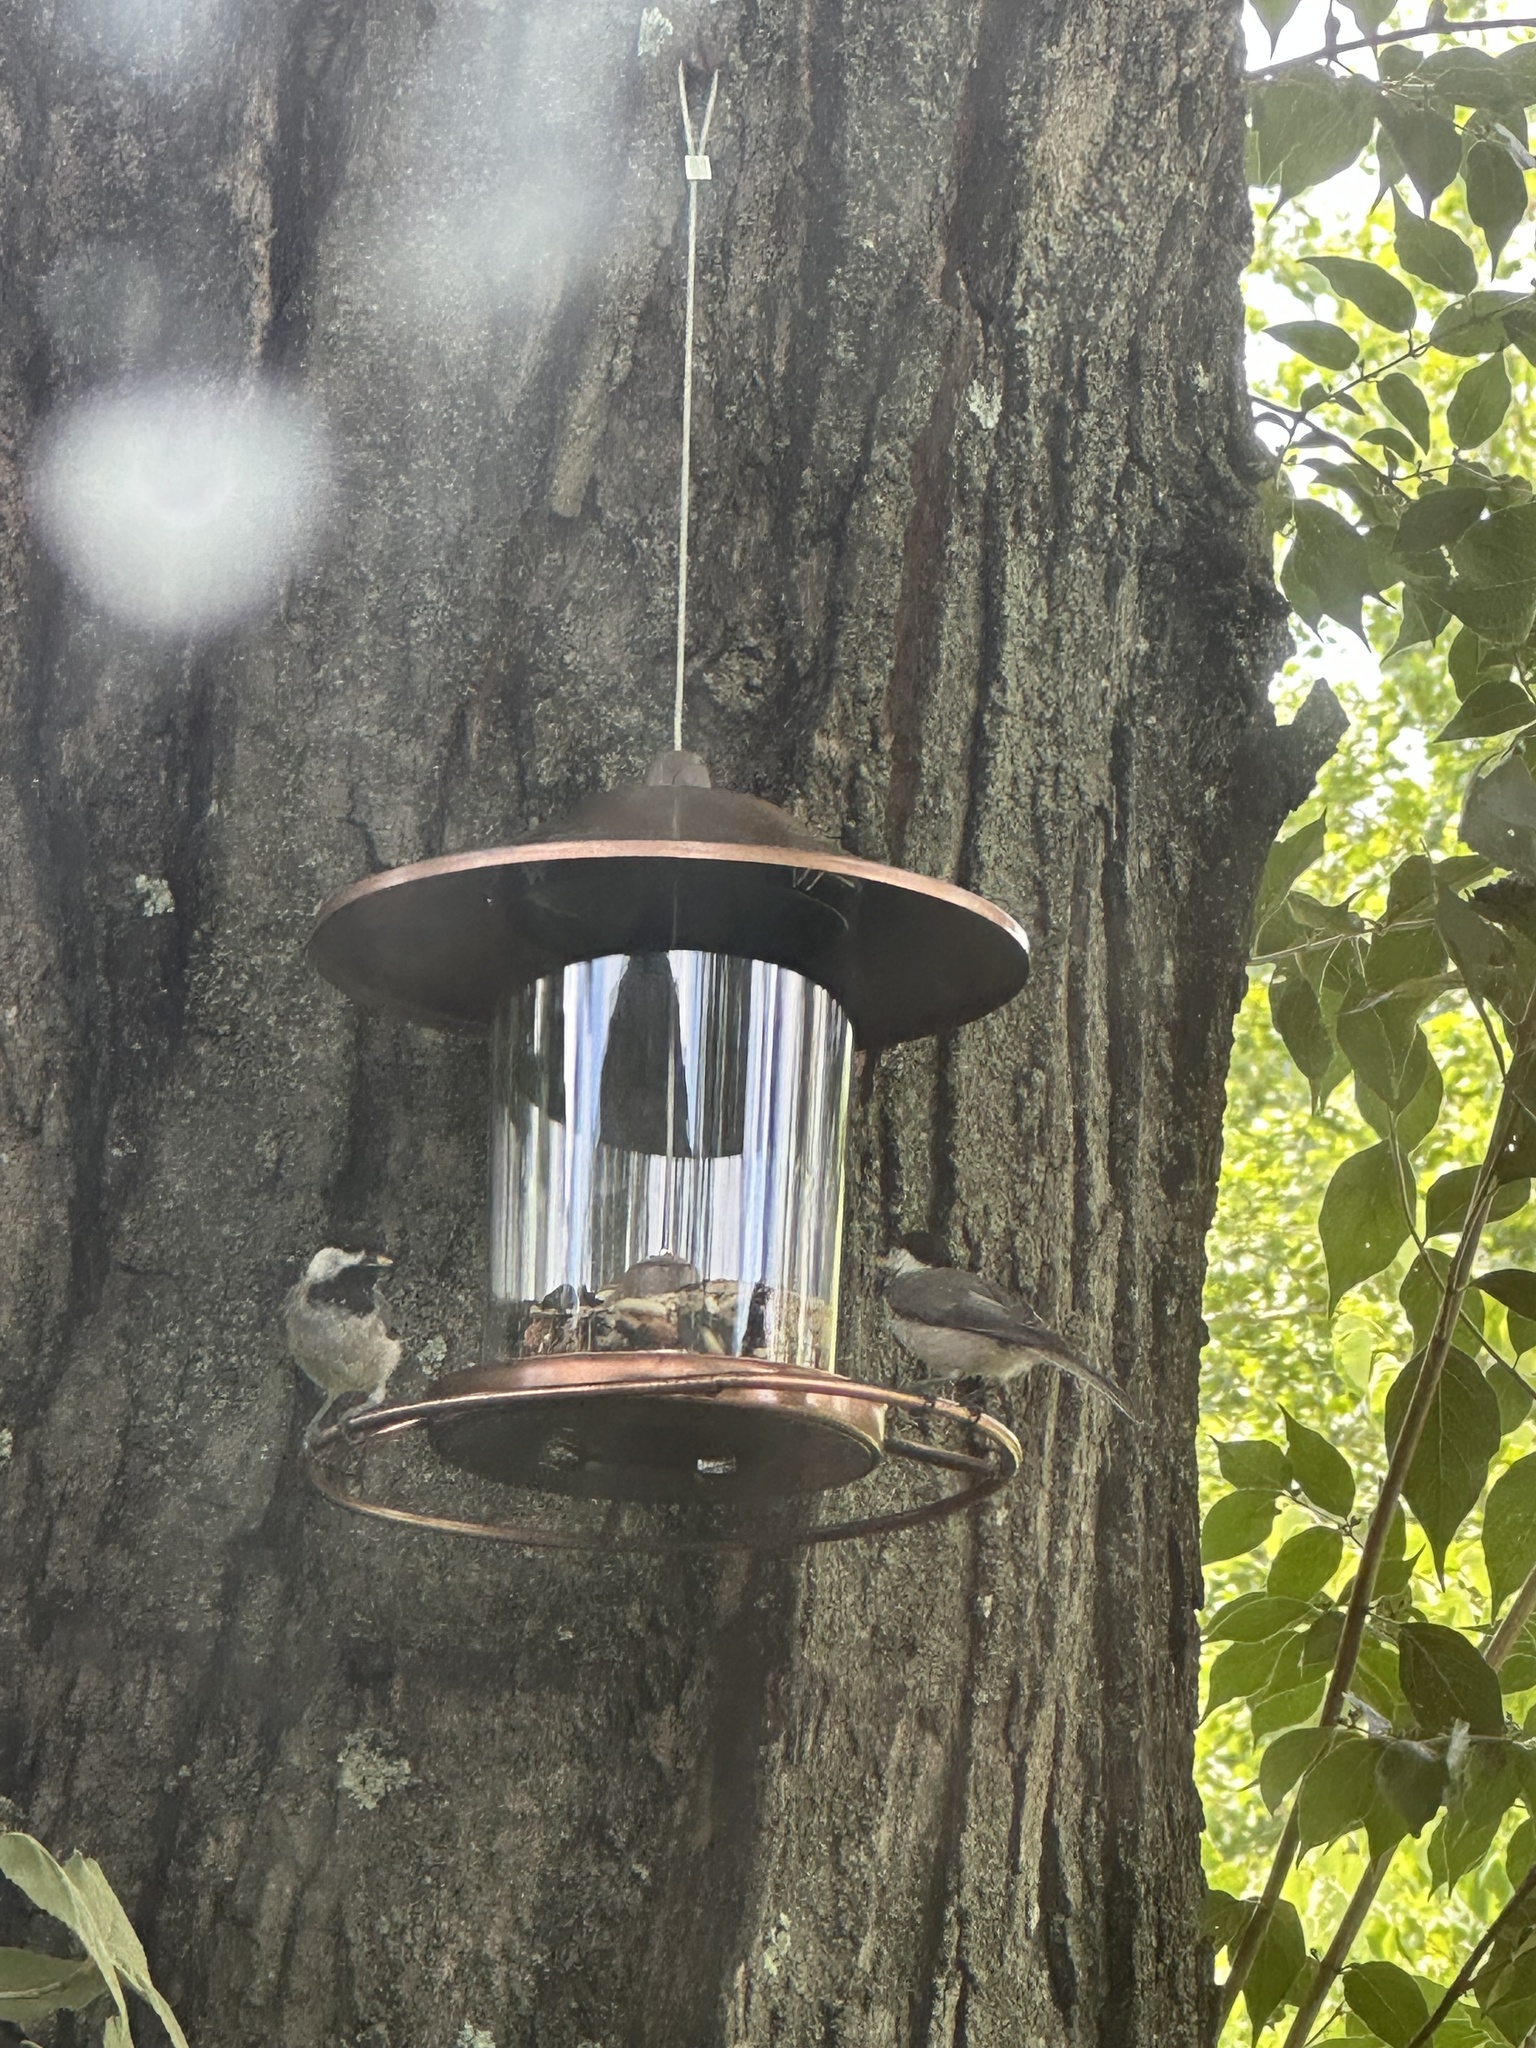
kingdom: Animalia
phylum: Chordata
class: Aves
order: Passeriformes
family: Paridae
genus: Poecile
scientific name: Poecile carolinensis
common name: Carolina chickadee
